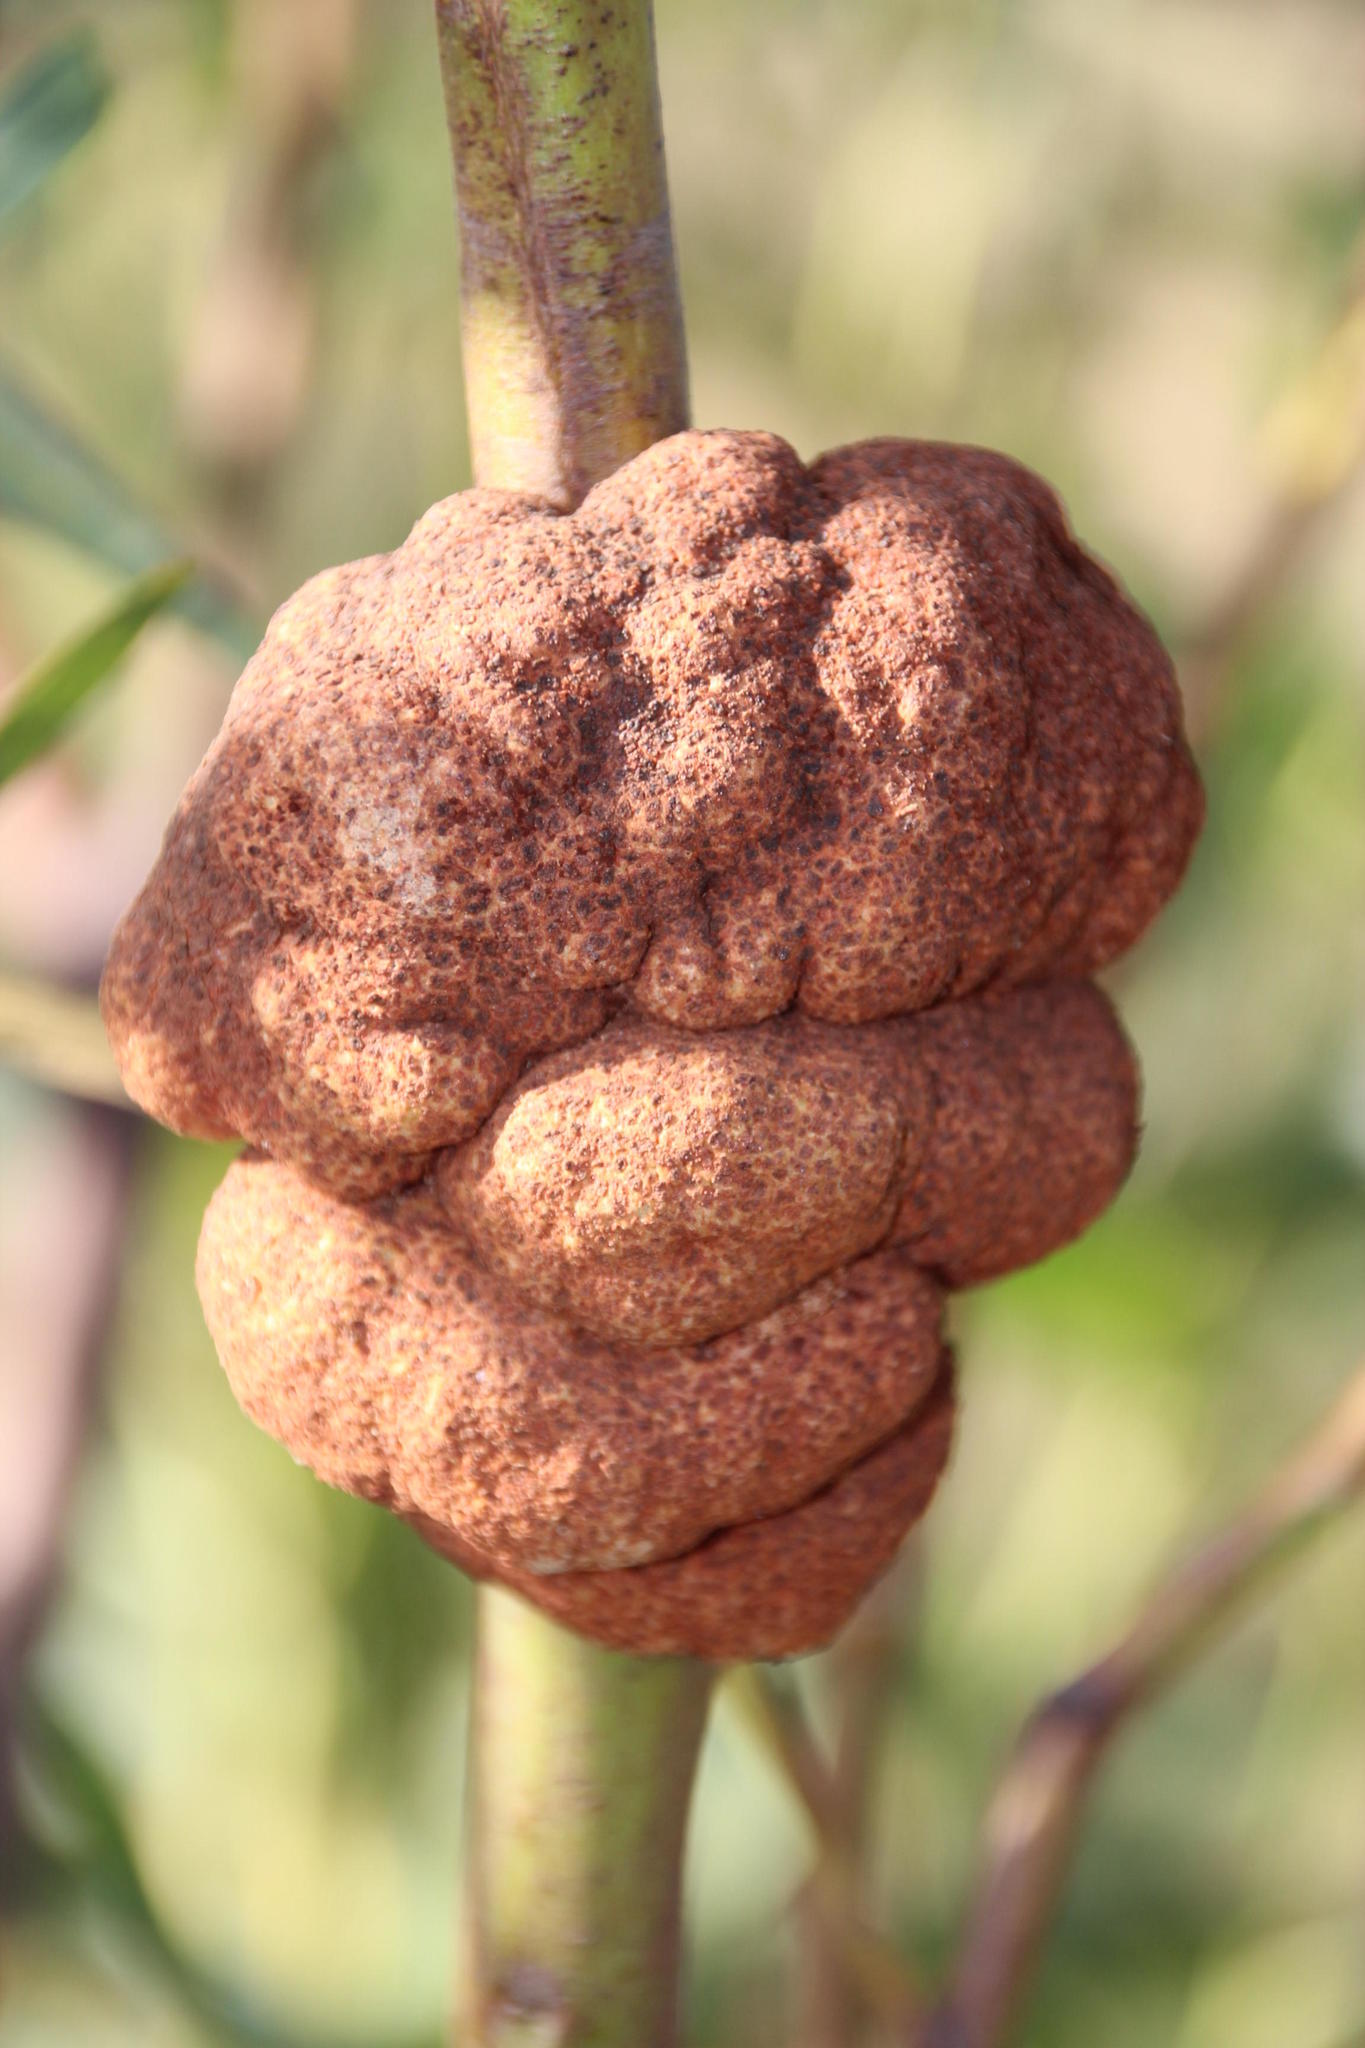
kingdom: Fungi
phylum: Basidiomycota
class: Pucciniomycetes
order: Pucciniales
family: Uromycladiaceae
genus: Uromycladium
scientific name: Uromycladium morrisii
